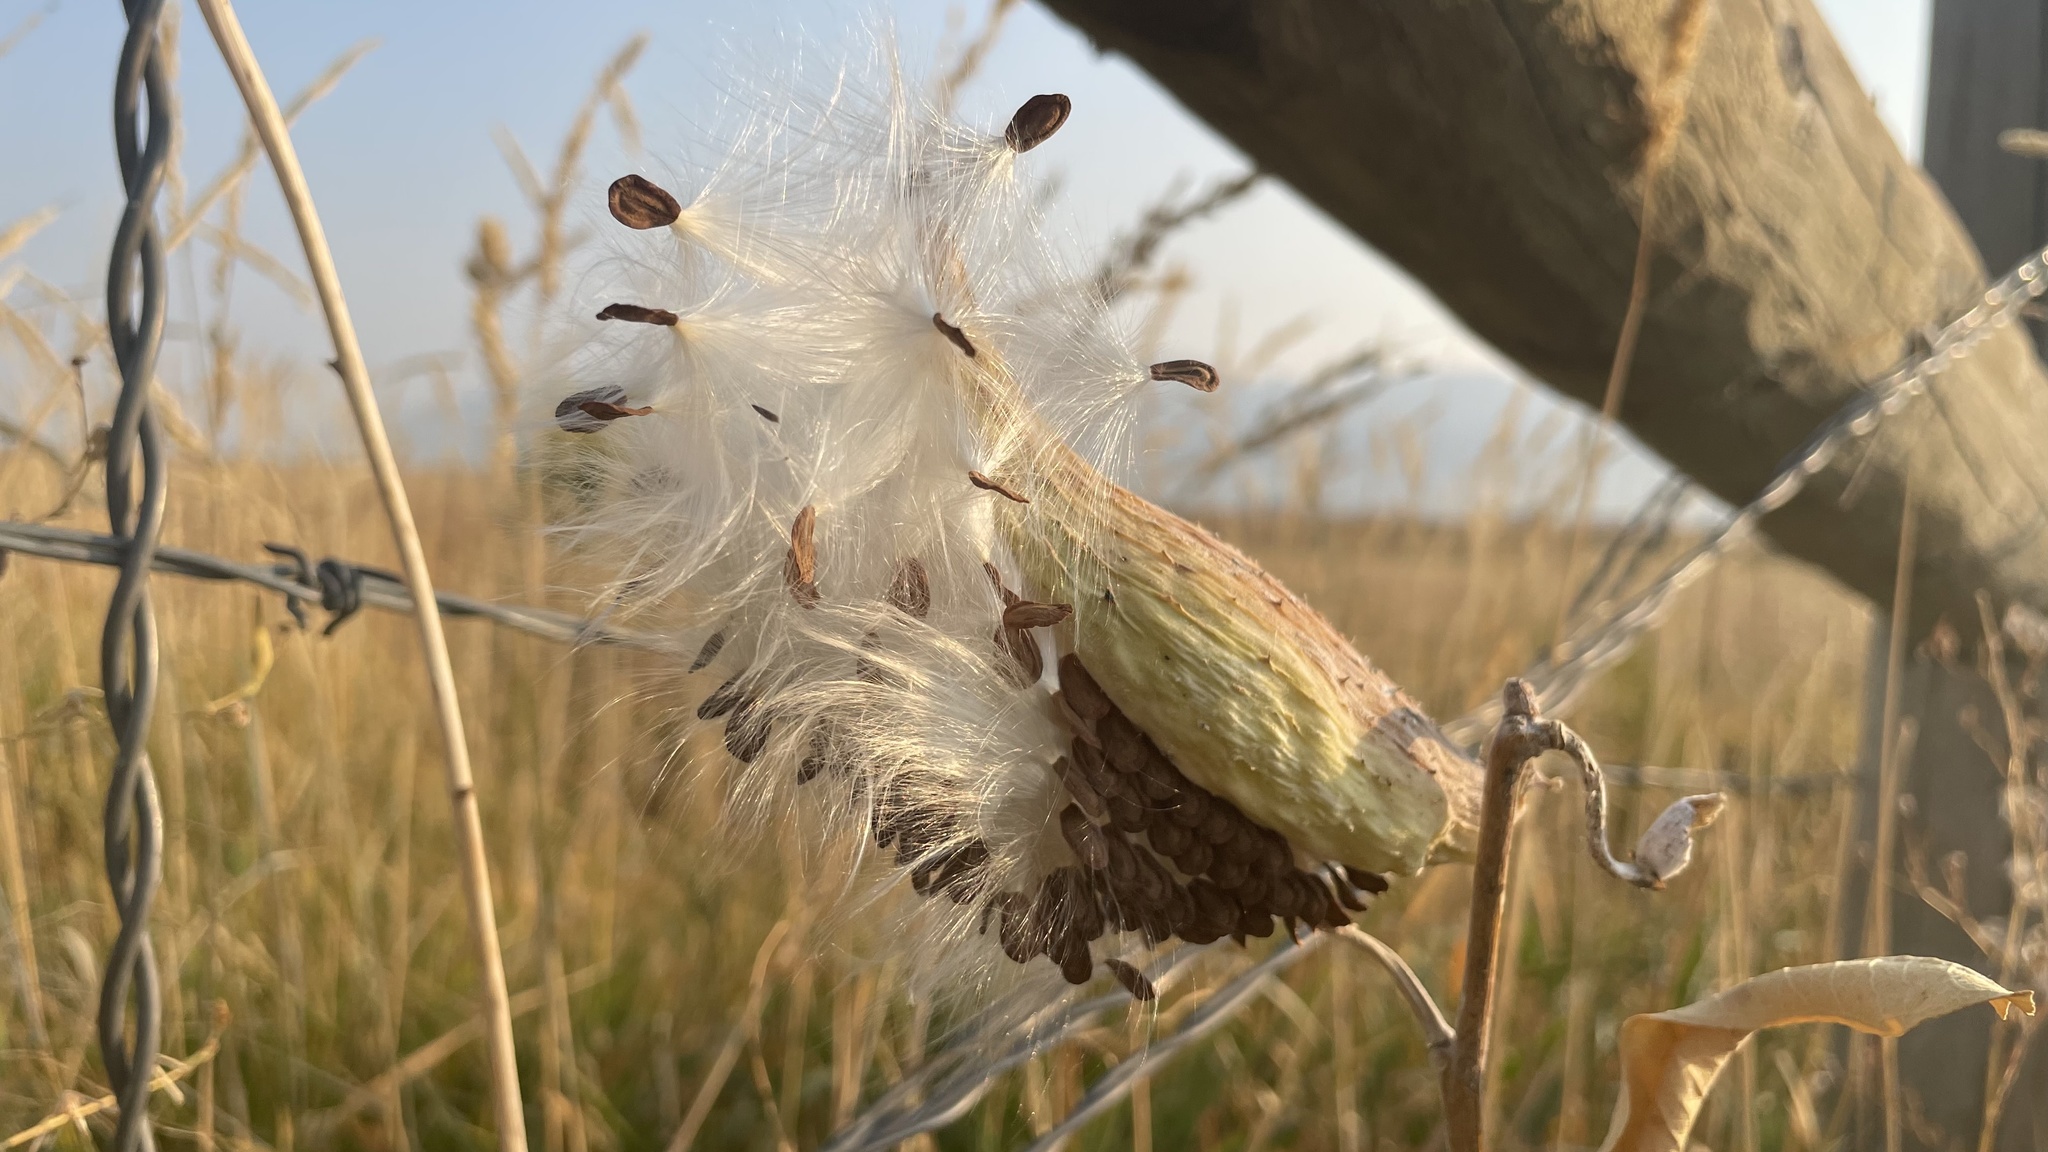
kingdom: Plantae
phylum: Tracheophyta
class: Magnoliopsida
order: Gentianales
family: Apocynaceae
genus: Asclepias
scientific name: Asclepias speciosa
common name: Showy milkweed
